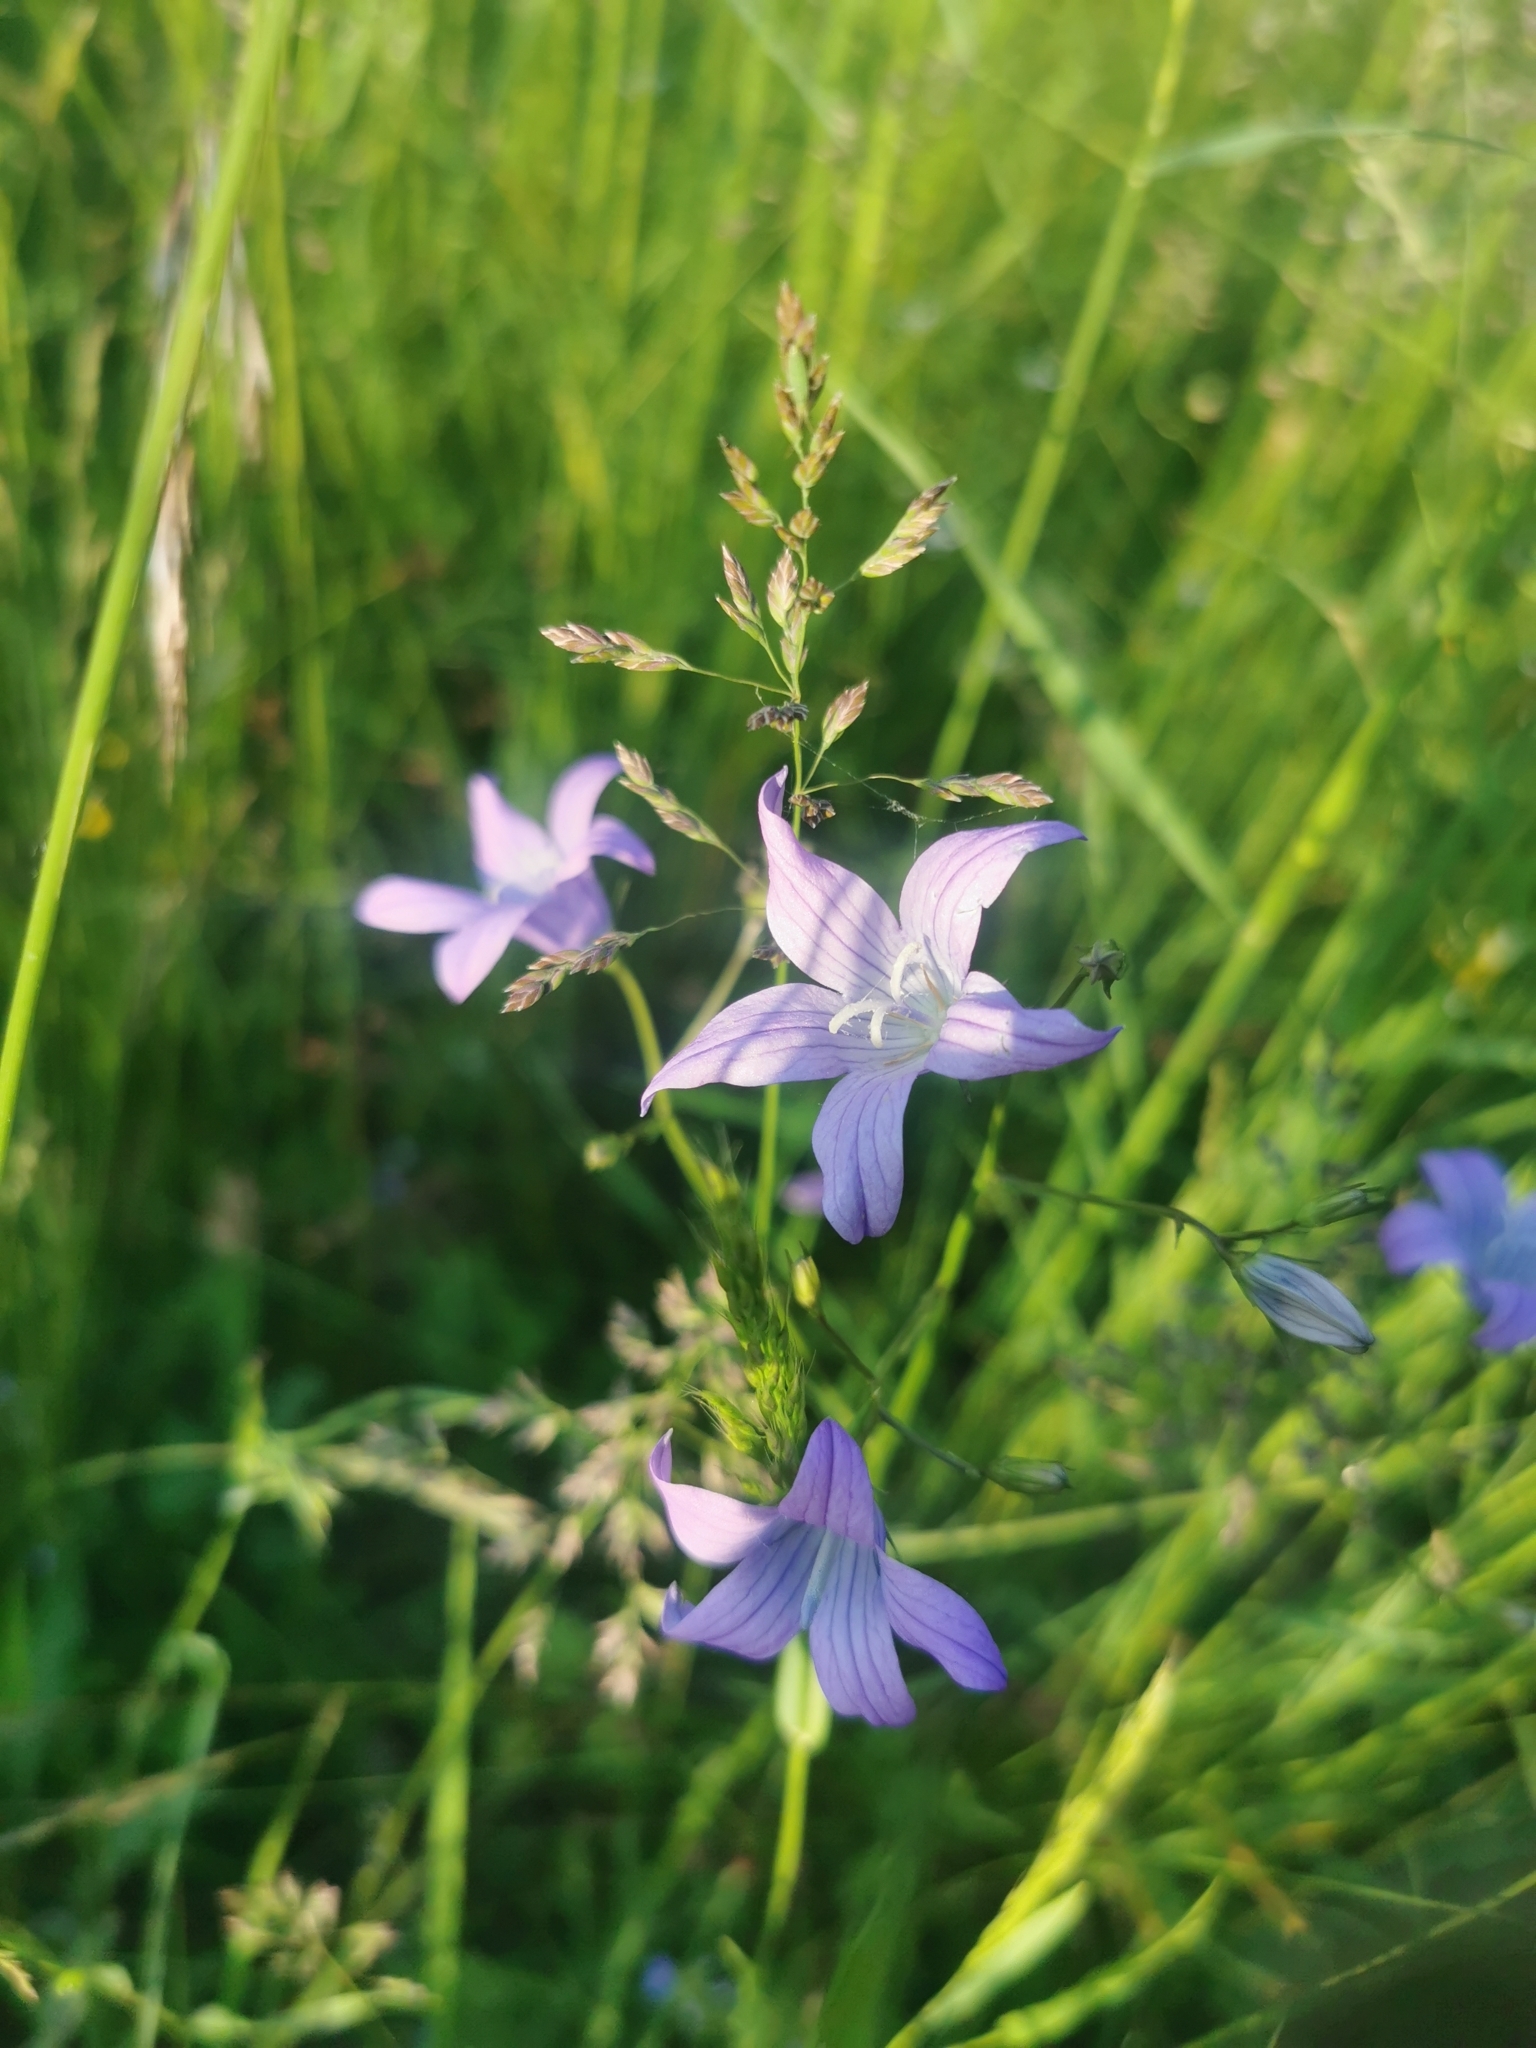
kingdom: Plantae
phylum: Tracheophyta
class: Magnoliopsida
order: Asterales
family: Campanulaceae
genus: Campanula
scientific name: Campanula patula
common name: Spreading bellflower
